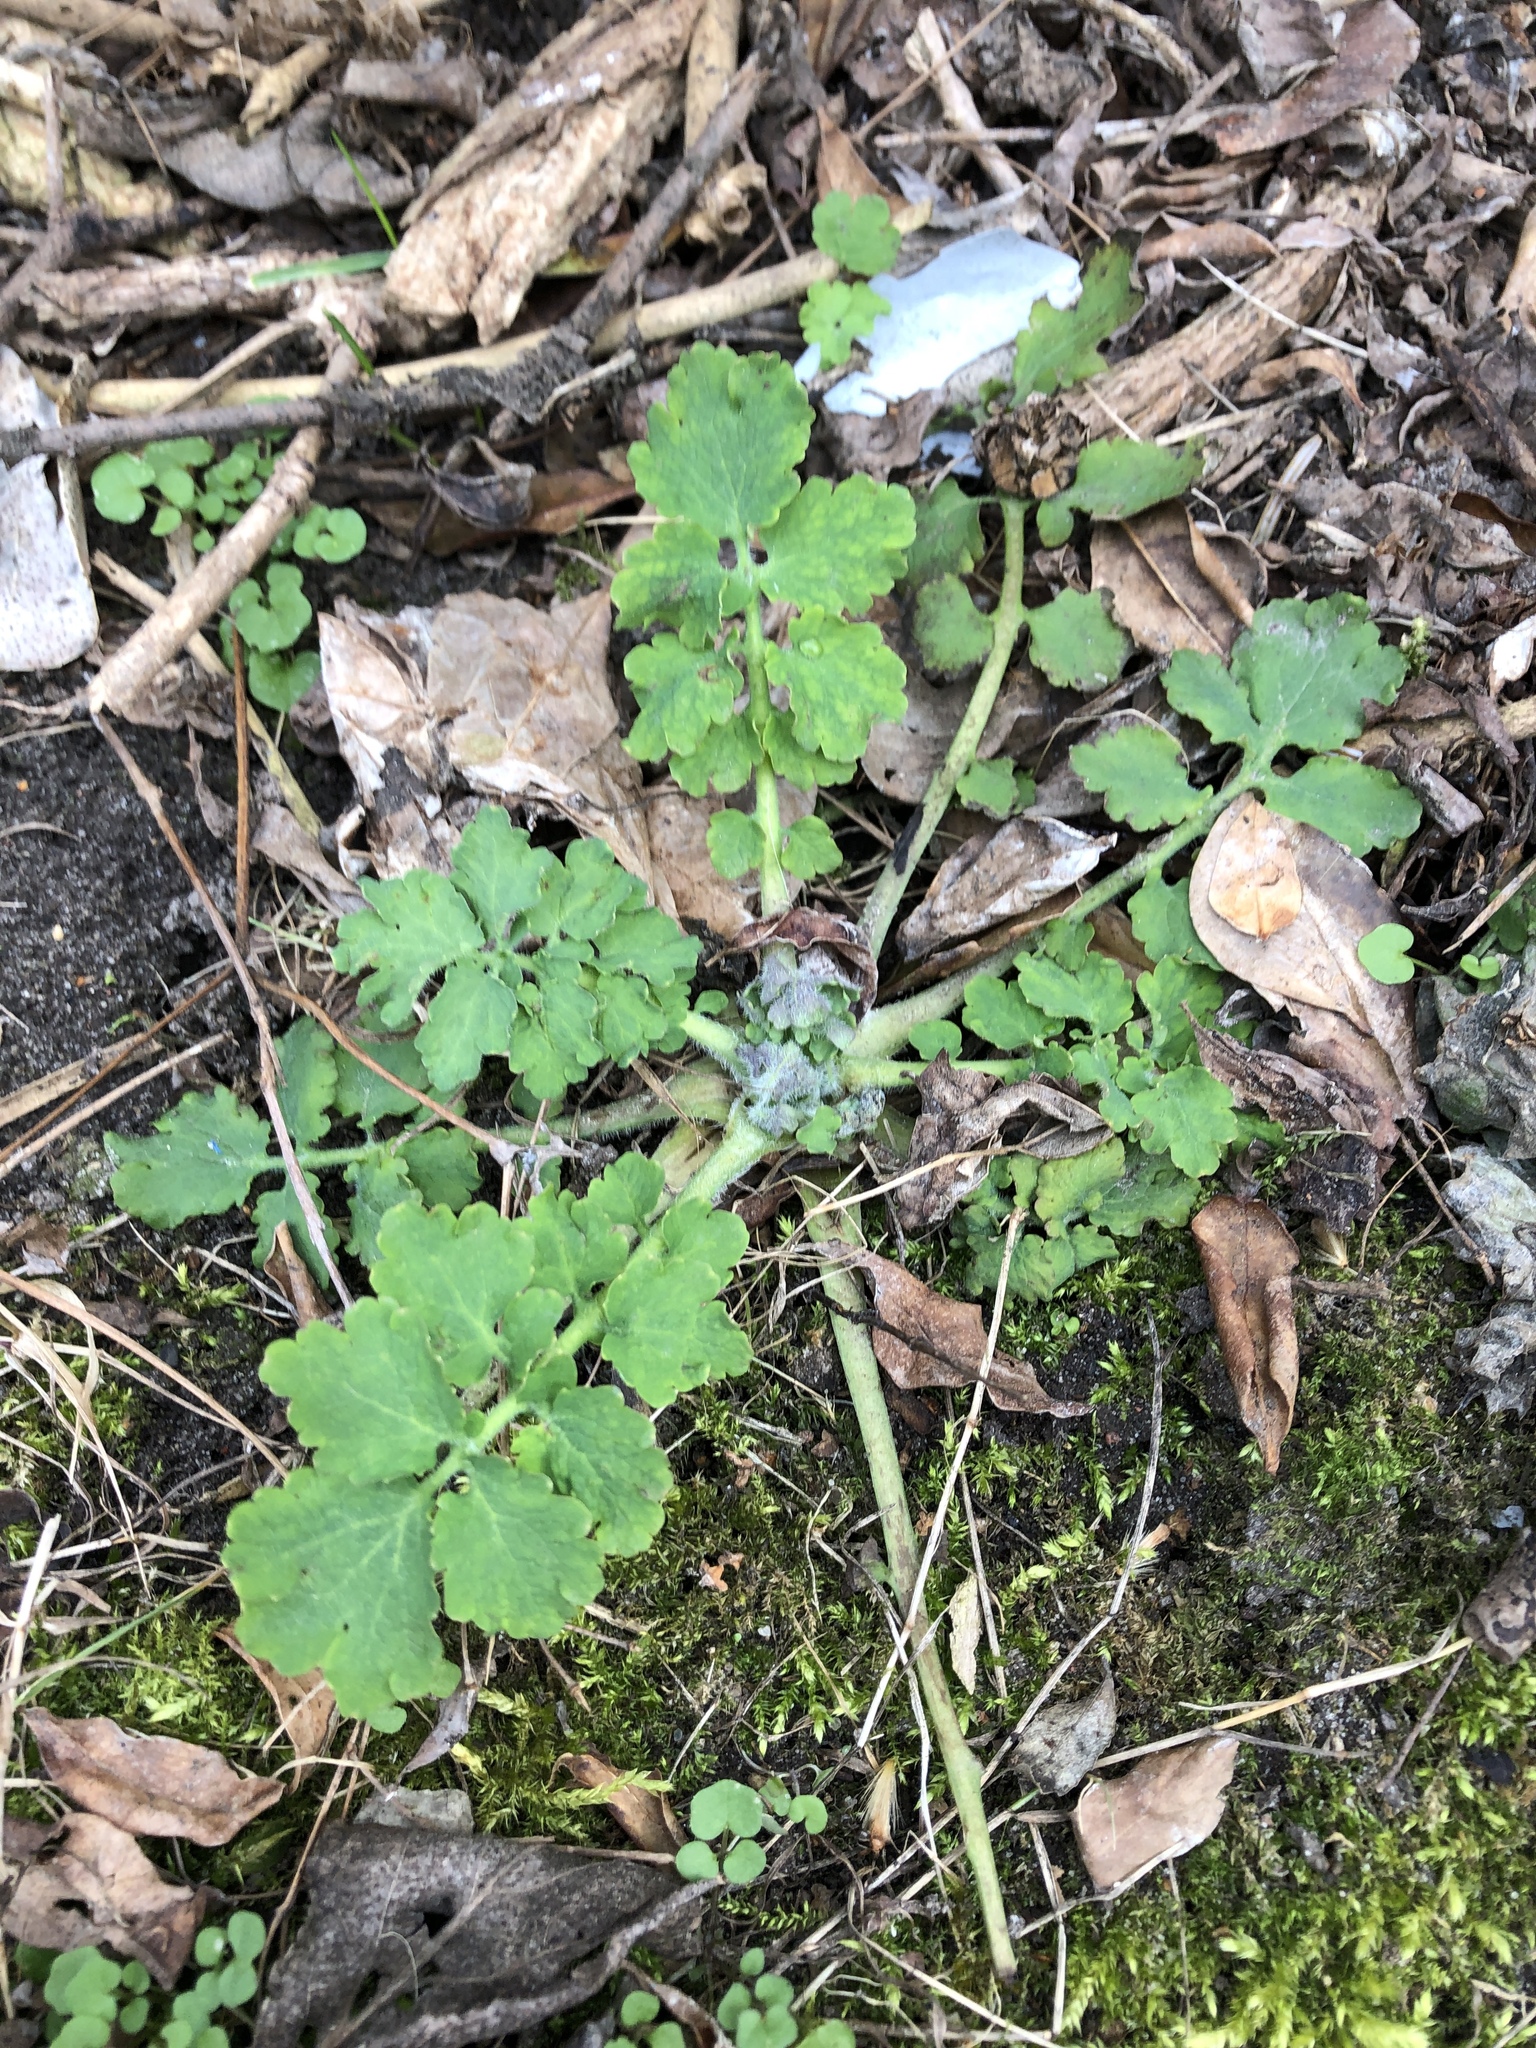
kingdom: Plantae
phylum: Tracheophyta
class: Magnoliopsida
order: Ranunculales
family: Papaveraceae
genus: Chelidonium
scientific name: Chelidonium majus
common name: Greater celandine
